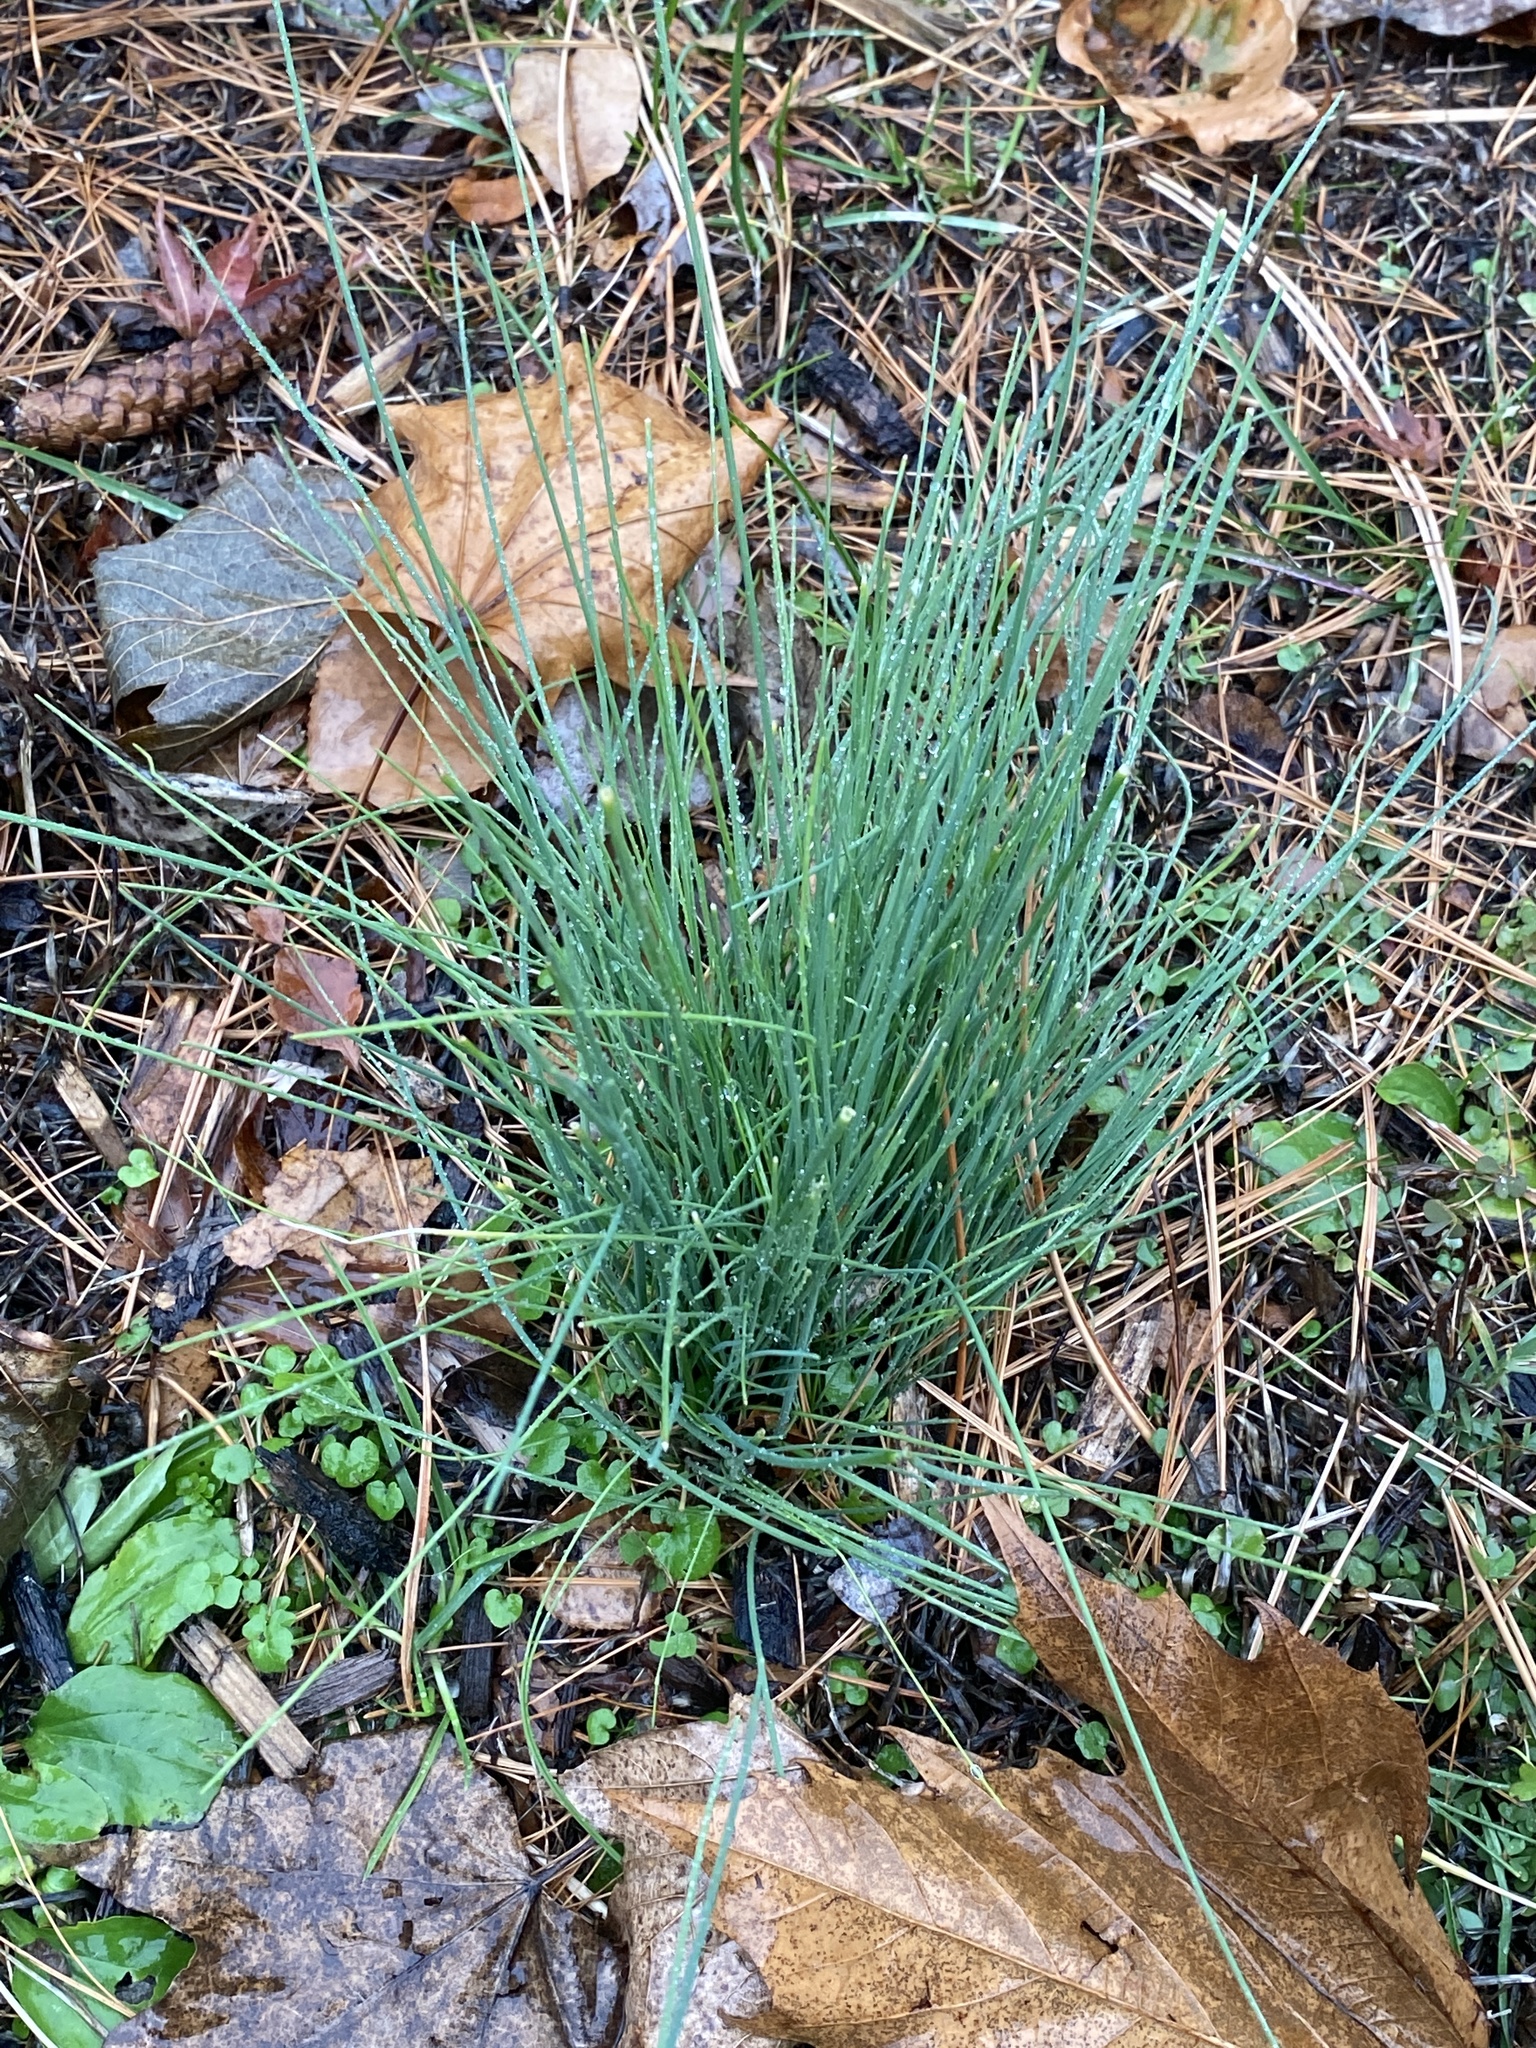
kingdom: Plantae
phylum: Tracheophyta
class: Liliopsida
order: Asparagales
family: Amaryllidaceae
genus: Allium
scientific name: Allium vineale
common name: Crow garlic
